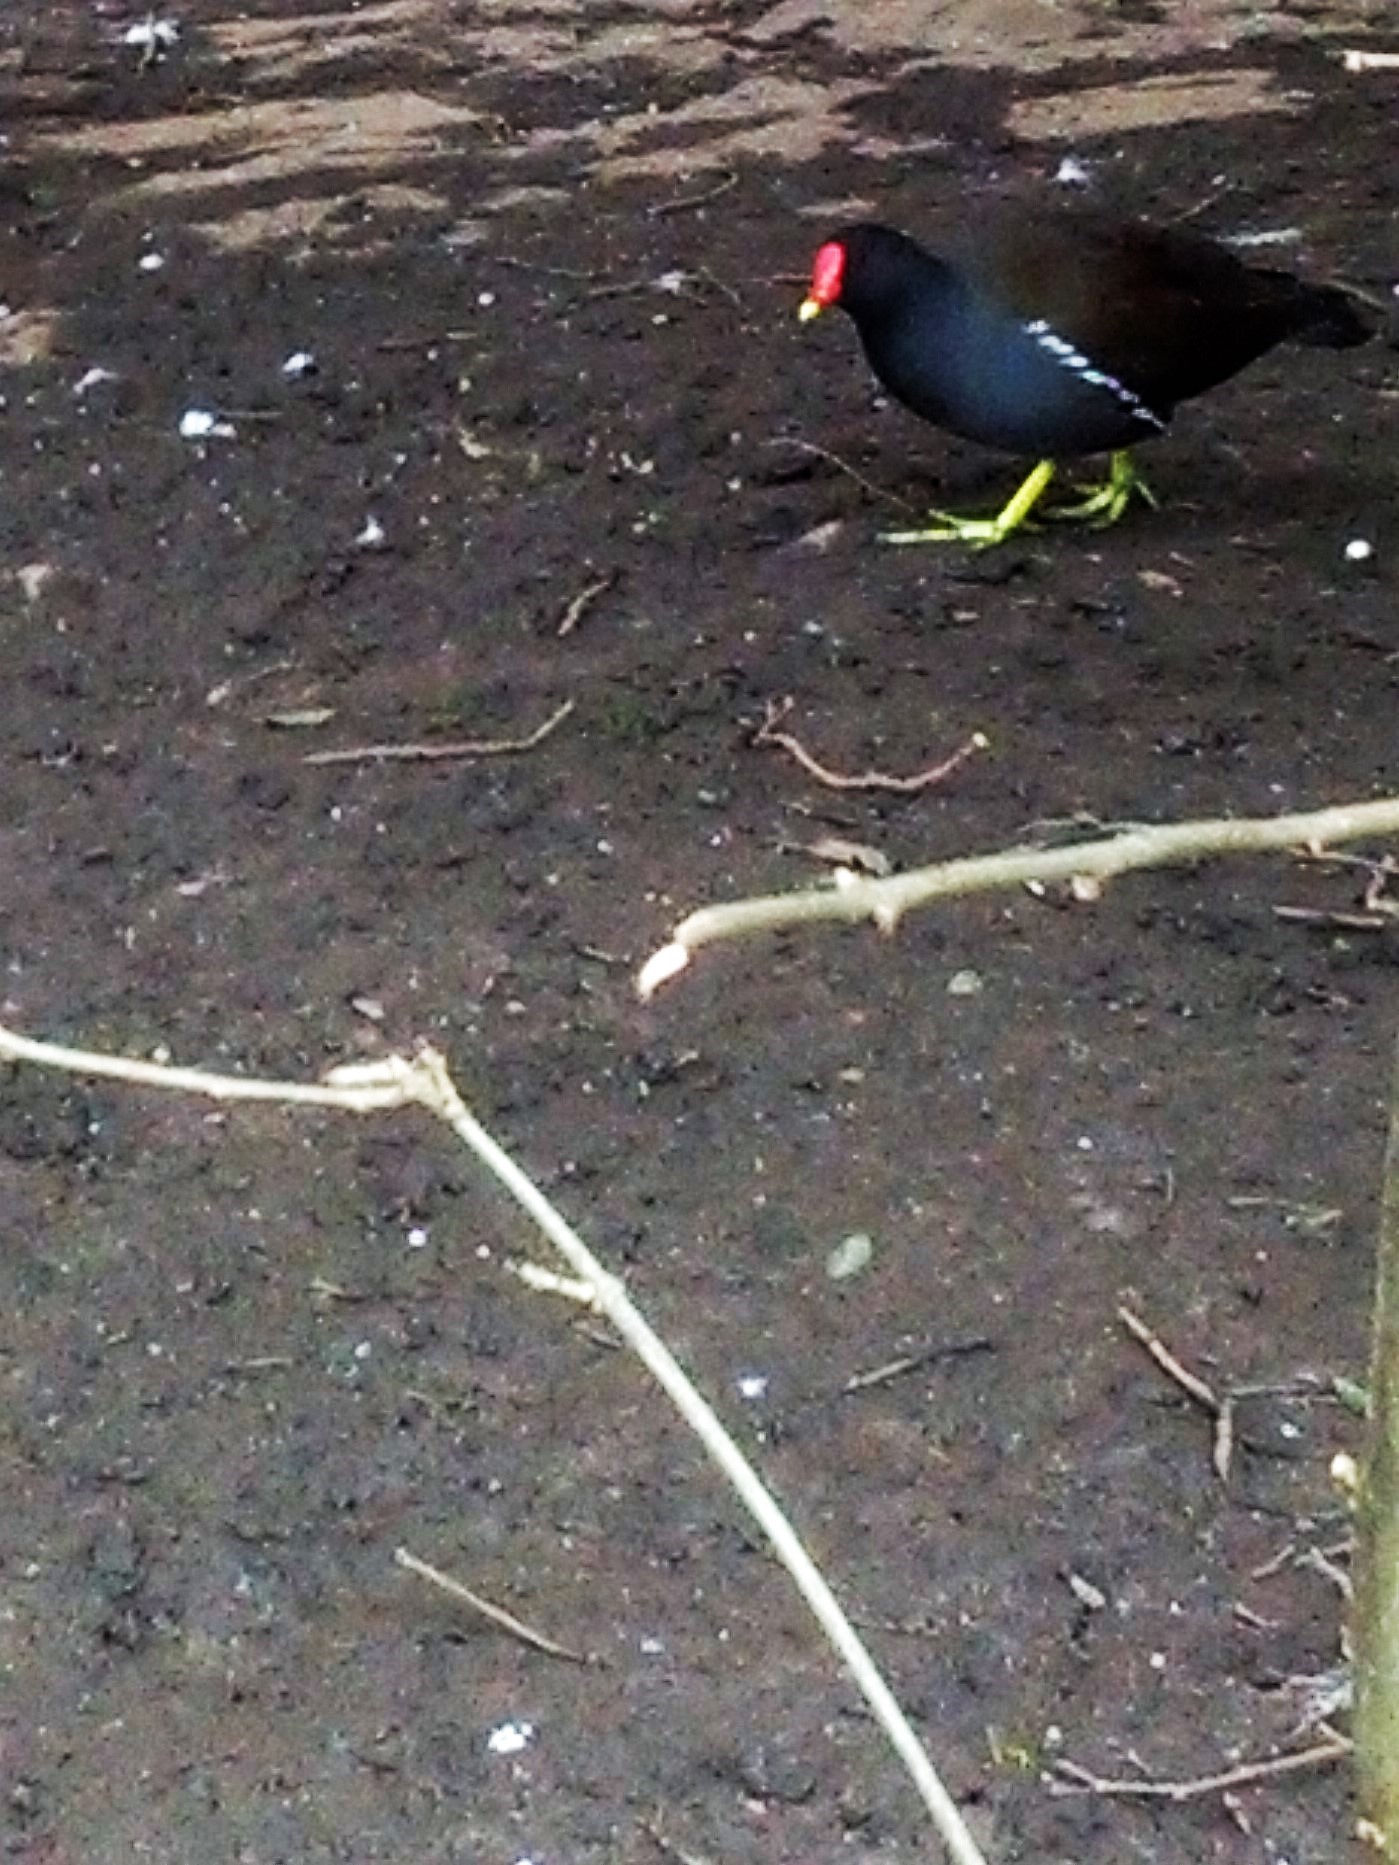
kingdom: Animalia
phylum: Chordata
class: Aves
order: Gruiformes
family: Rallidae
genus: Gallinula
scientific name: Gallinula chloropus
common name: Common moorhen
